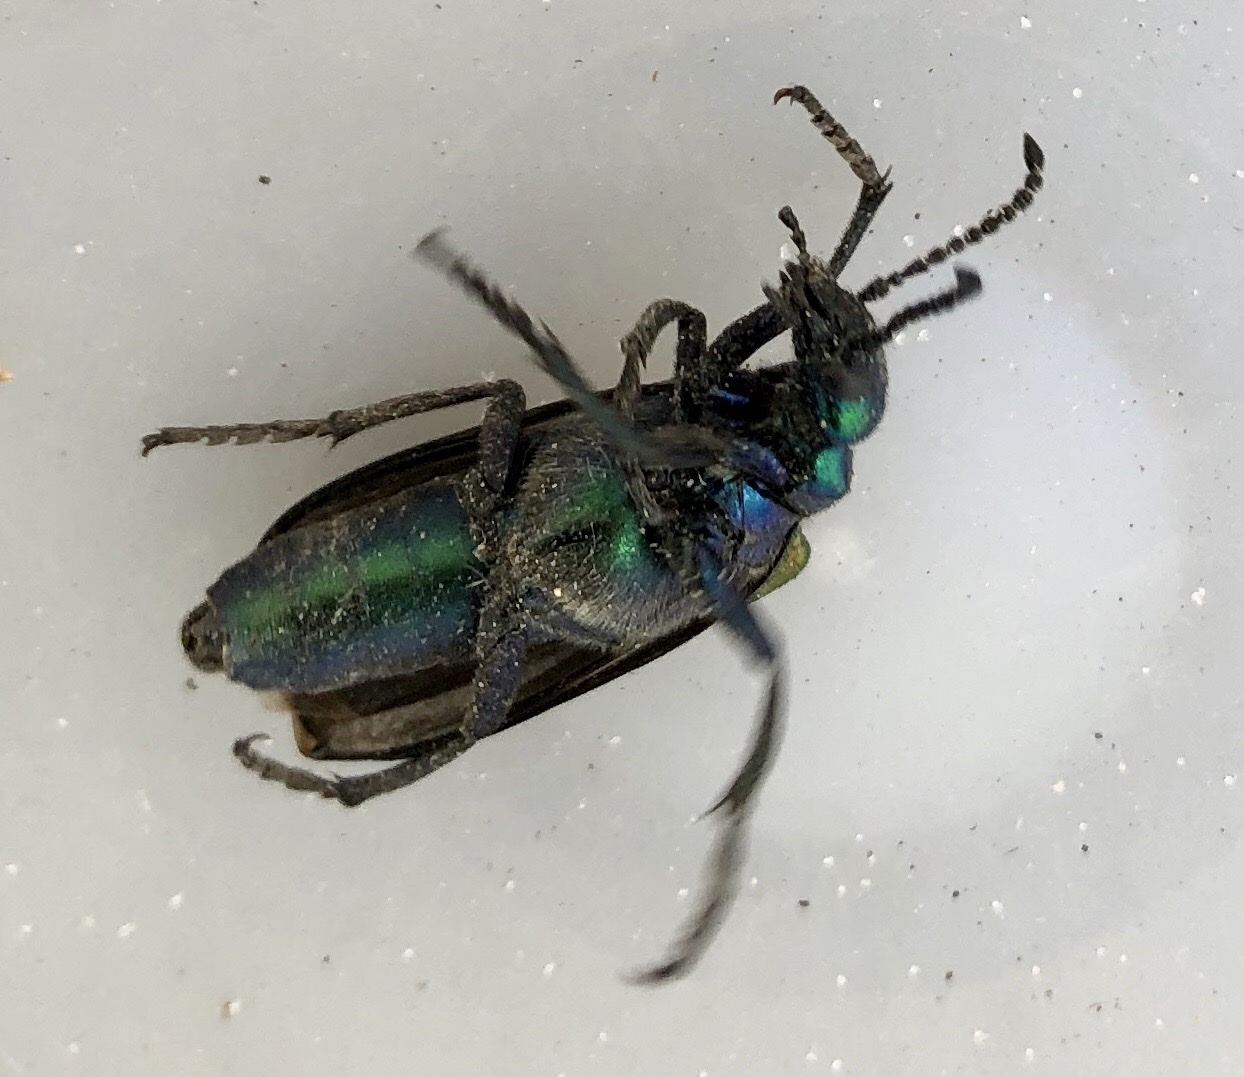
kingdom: Animalia
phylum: Arthropoda
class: Insecta
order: Coleoptera
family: Meloidae
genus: Lytta
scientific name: Lytta nuttallii
